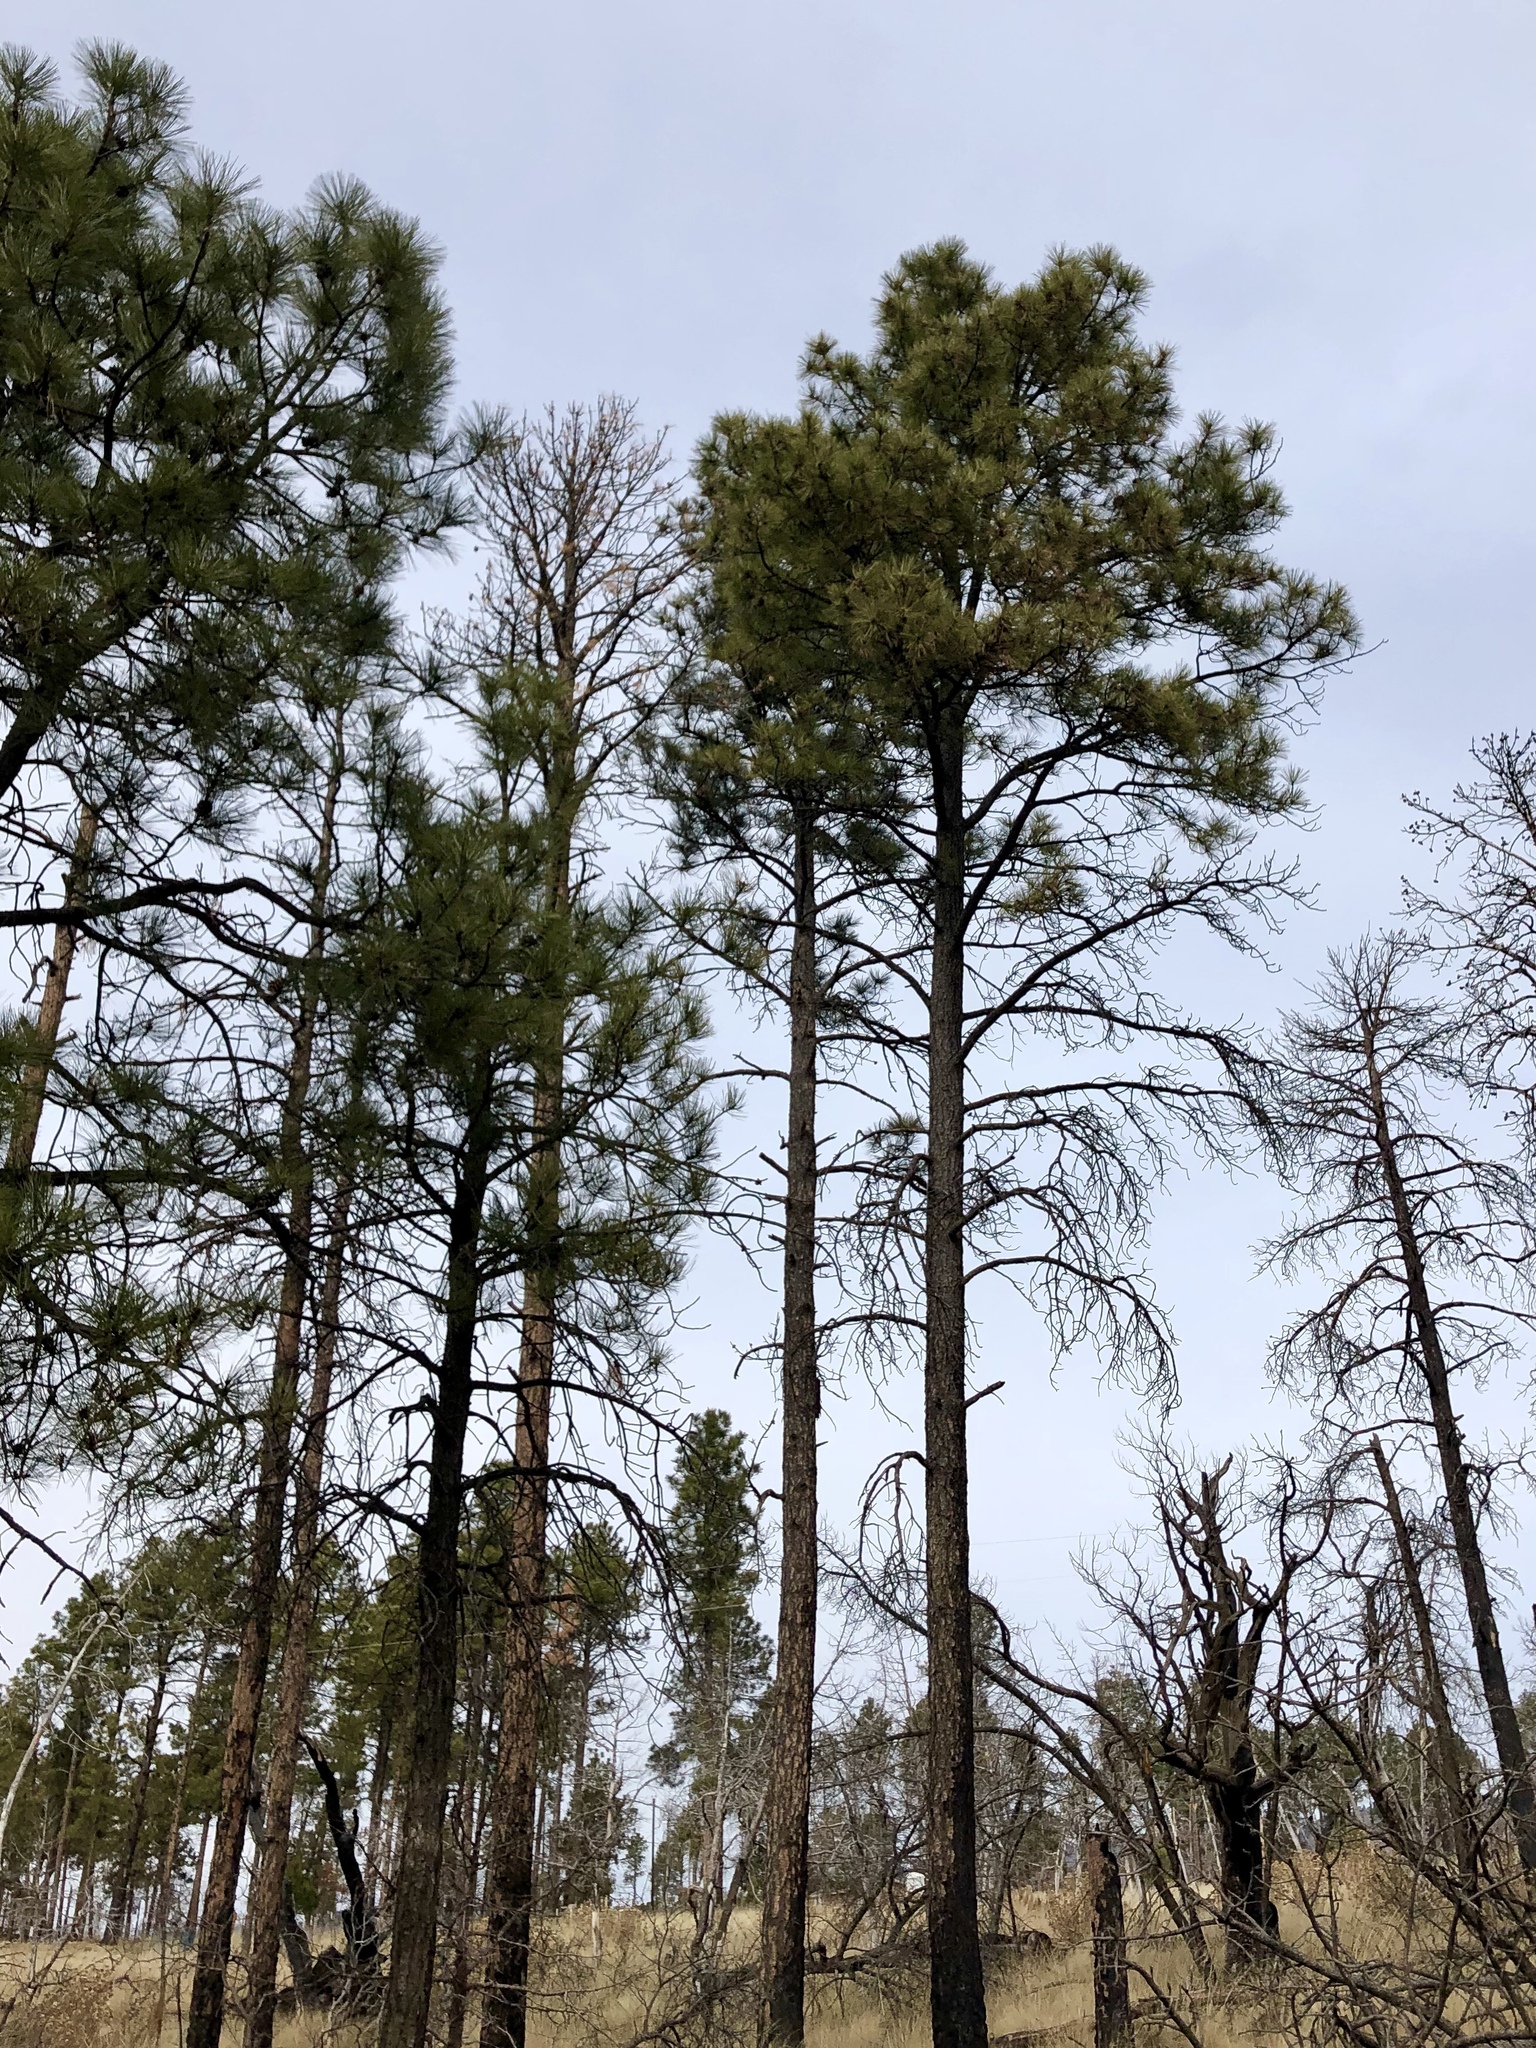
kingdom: Plantae
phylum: Tracheophyta
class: Pinopsida
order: Pinales
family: Pinaceae
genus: Pinus
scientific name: Pinus ponderosa
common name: Western yellow-pine
